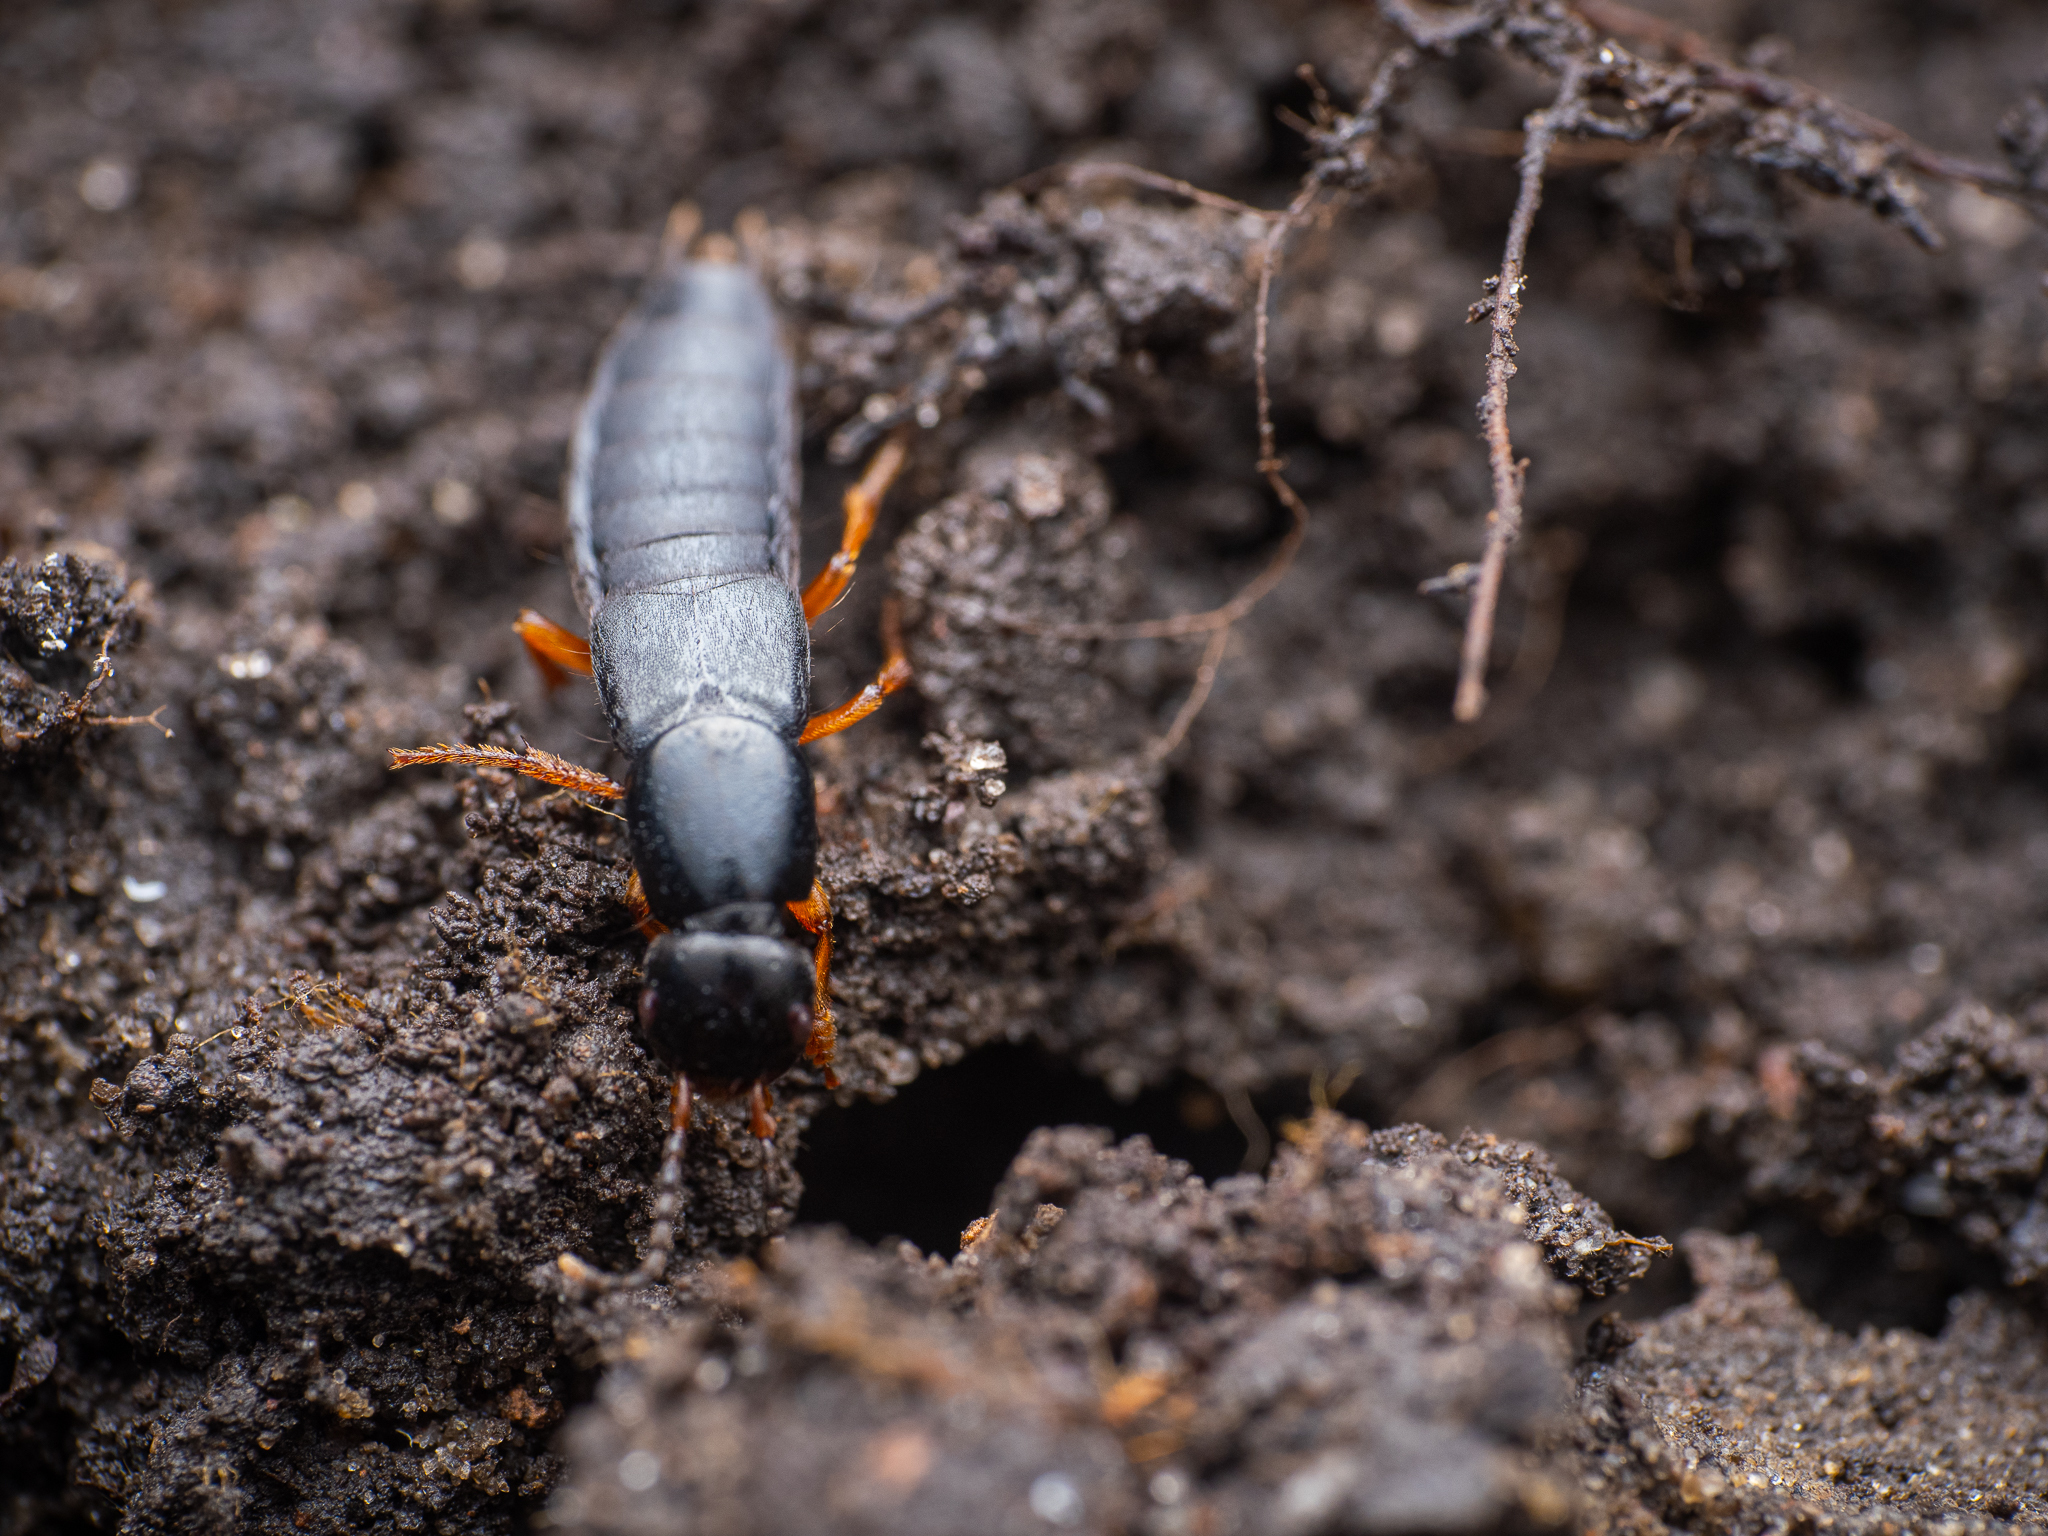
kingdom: Animalia
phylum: Arthropoda
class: Insecta
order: Coleoptera
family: Staphylinidae
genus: Ocypus
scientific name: Ocypus brunnipes
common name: Rove beetle
